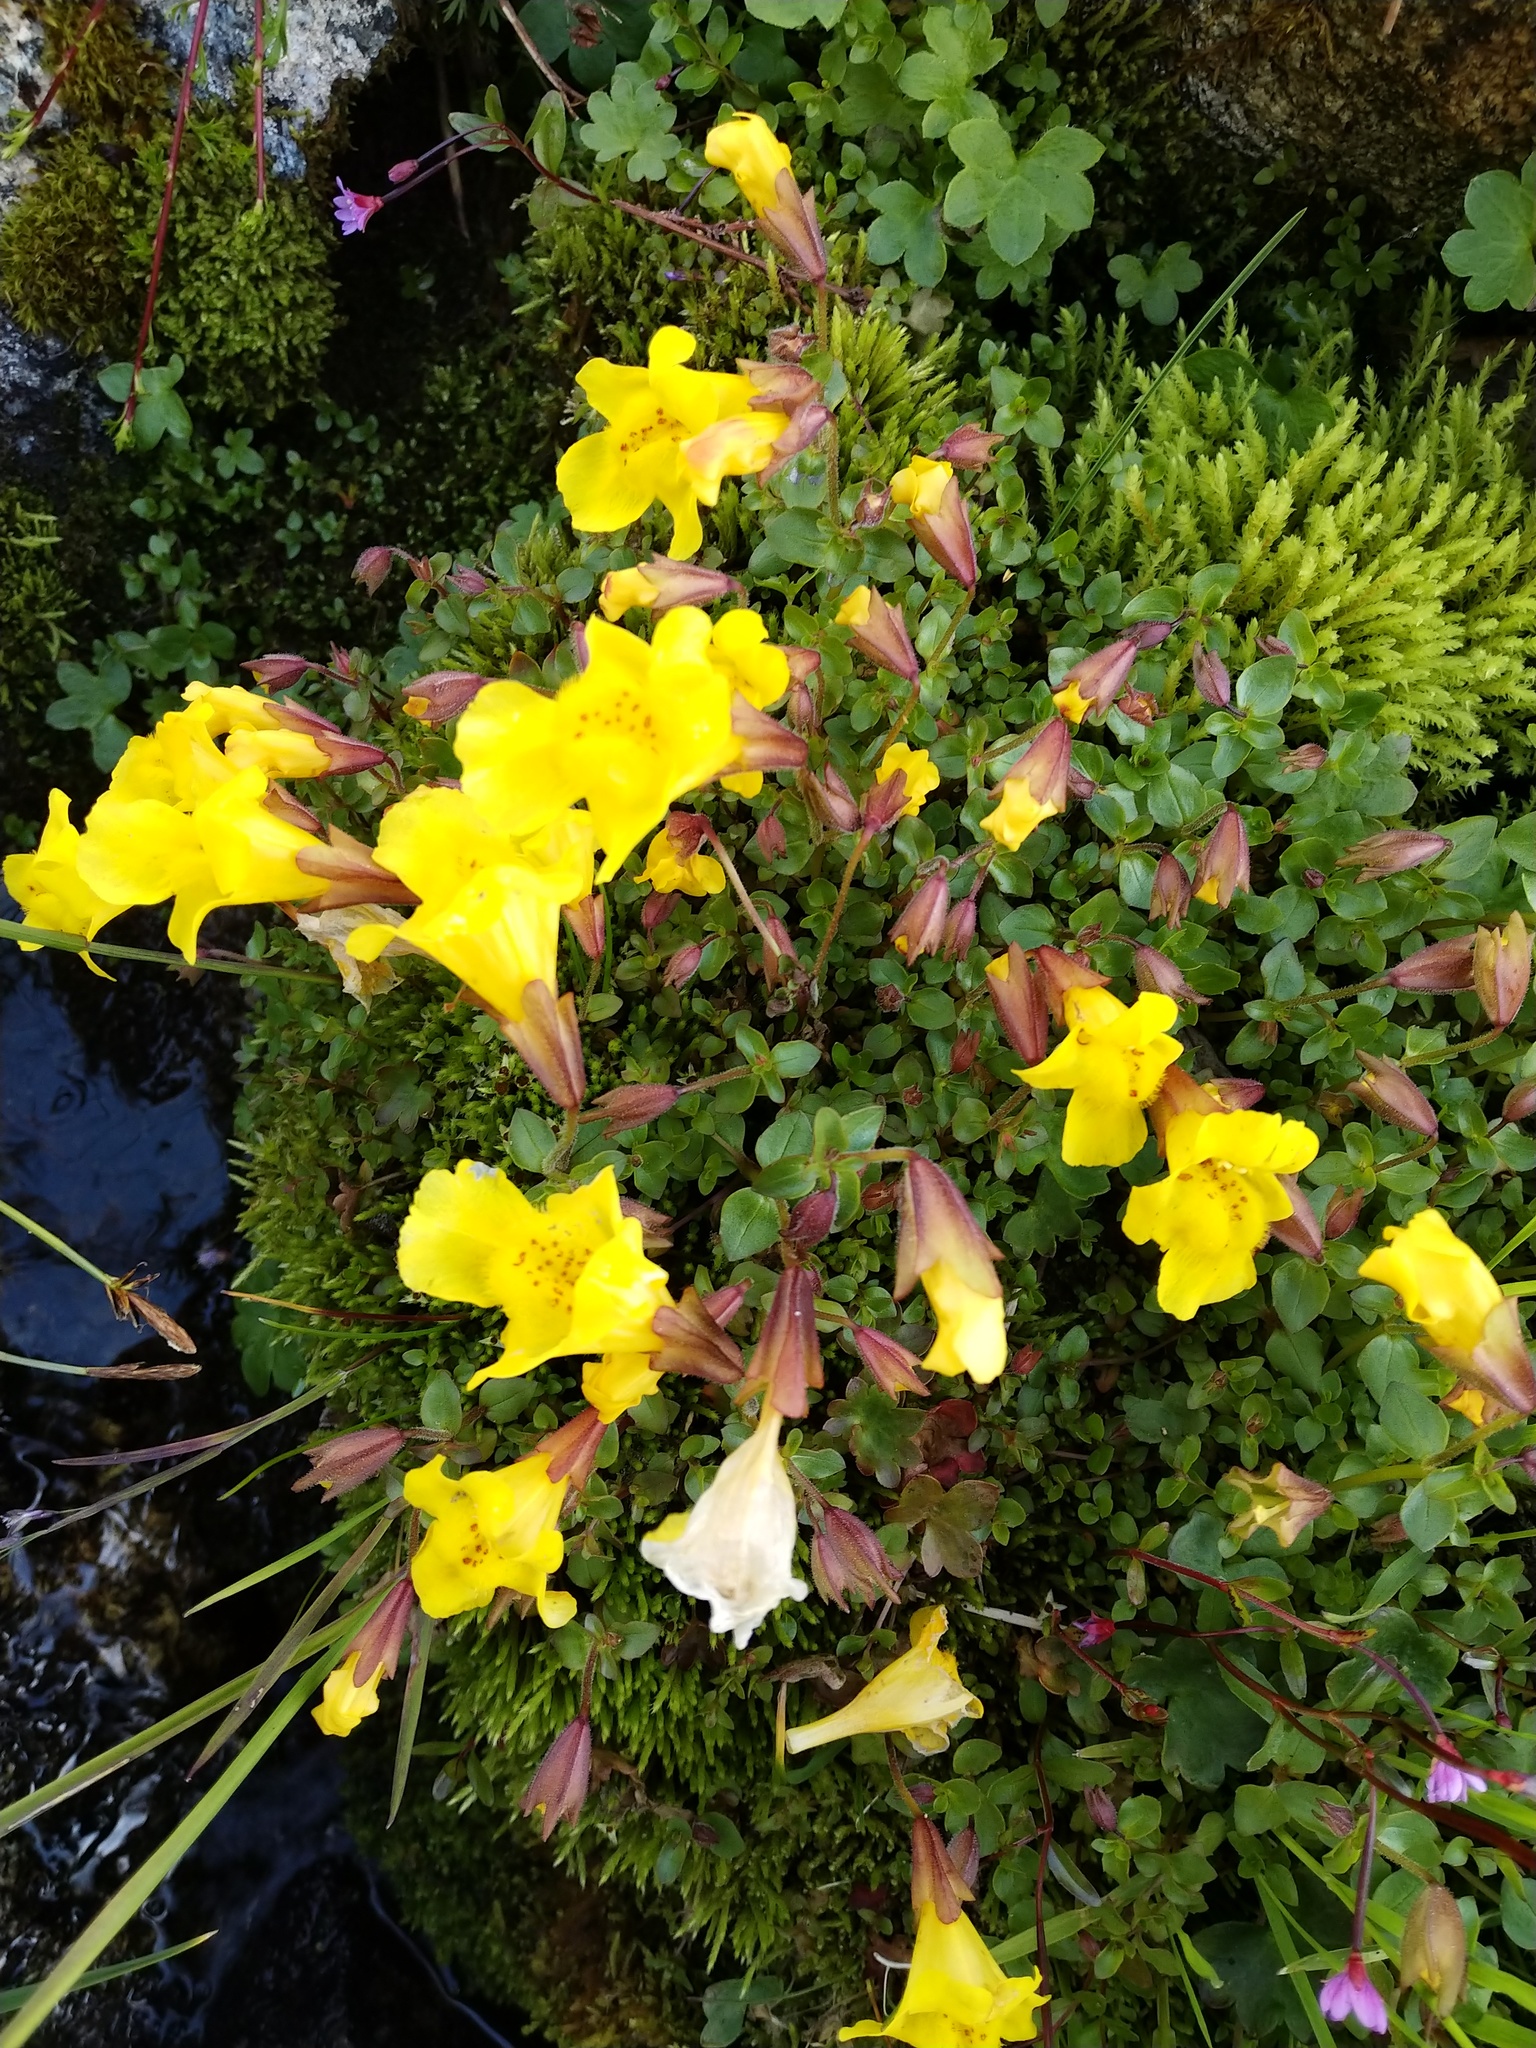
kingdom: Plantae
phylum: Tracheophyta
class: Magnoliopsida
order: Lamiales
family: Phrymaceae
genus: Erythranthe
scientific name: Erythranthe guttata
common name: Monkeyflower
